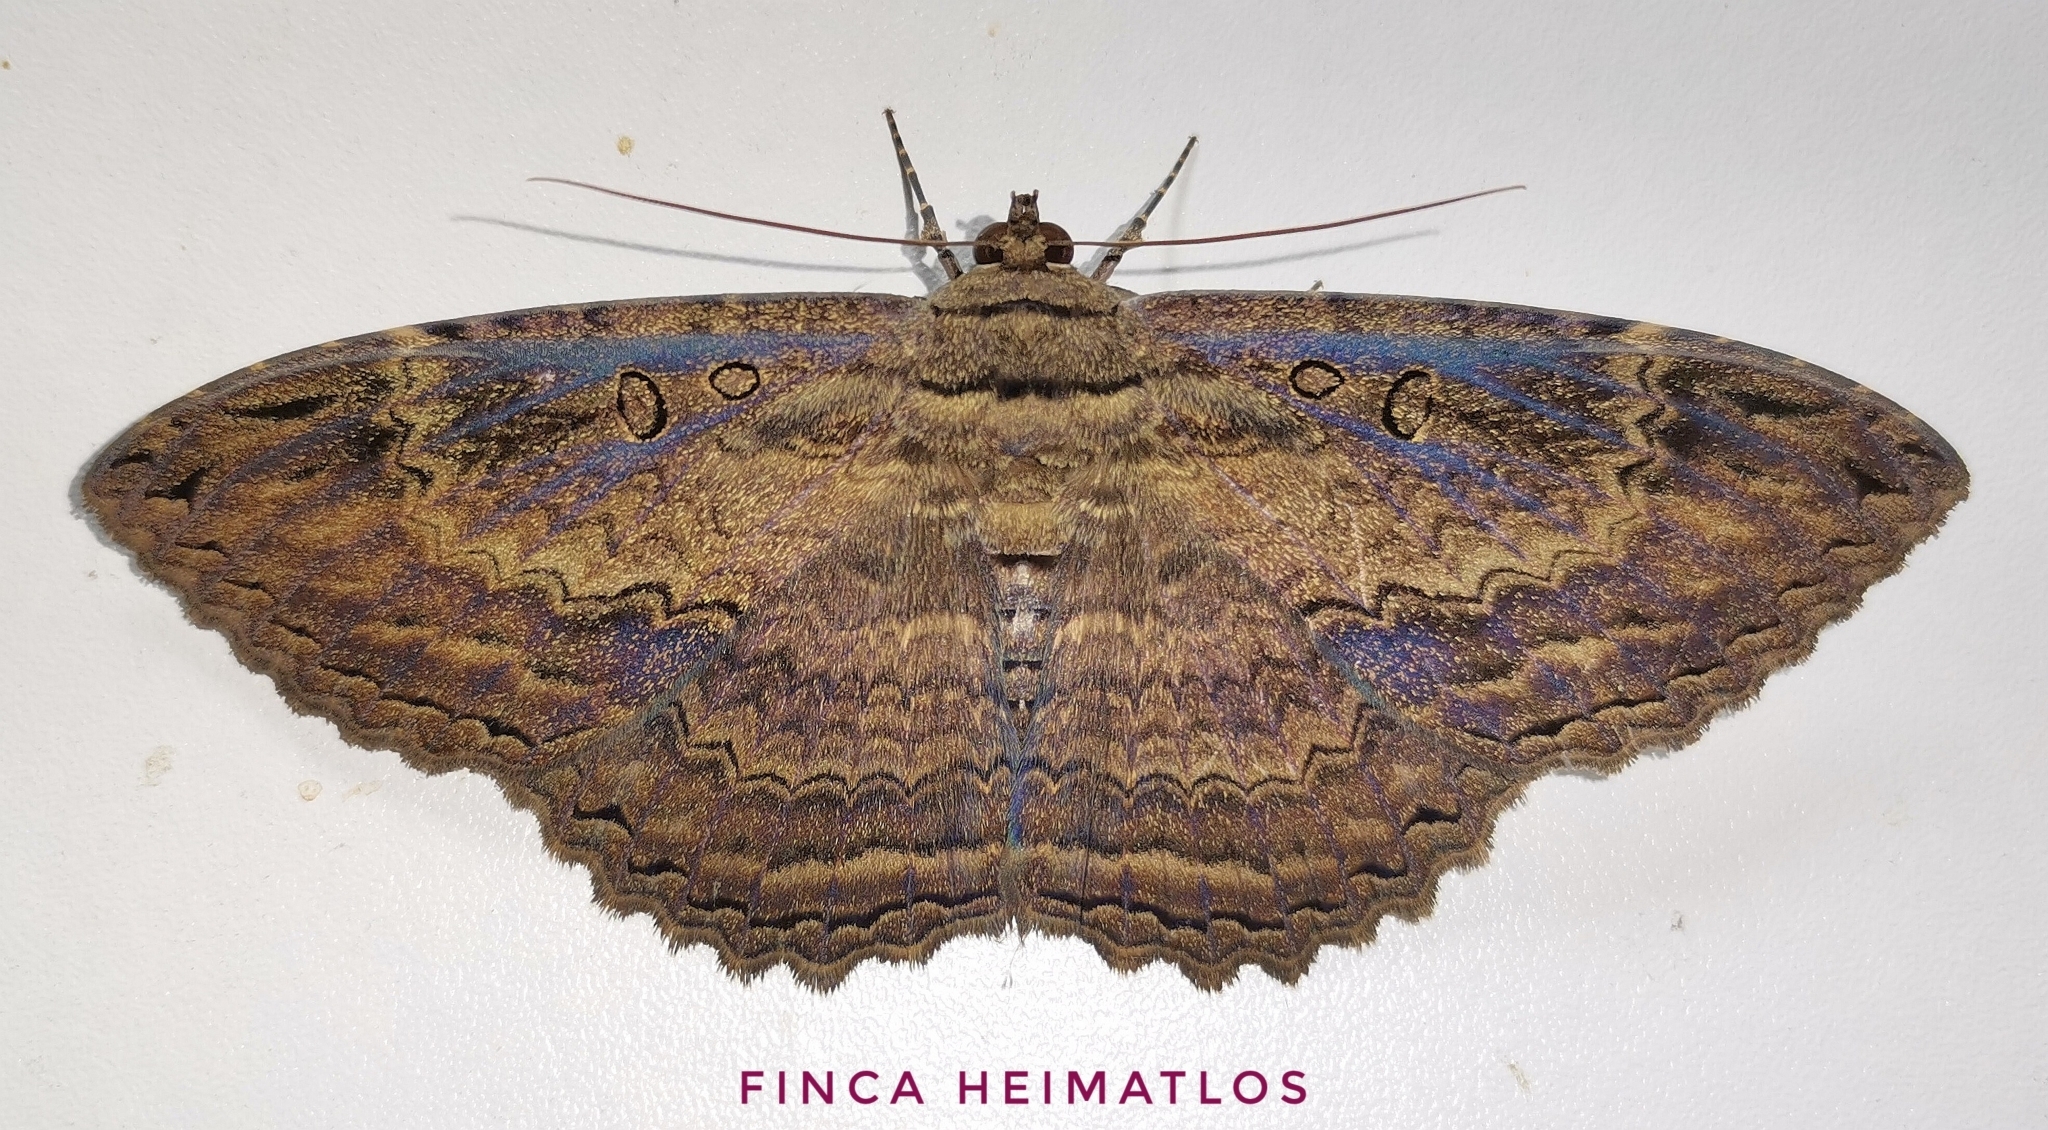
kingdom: Animalia
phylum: Arthropoda
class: Insecta
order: Lepidoptera
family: Erebidae
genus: Feigeria
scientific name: Feigeria buteo
